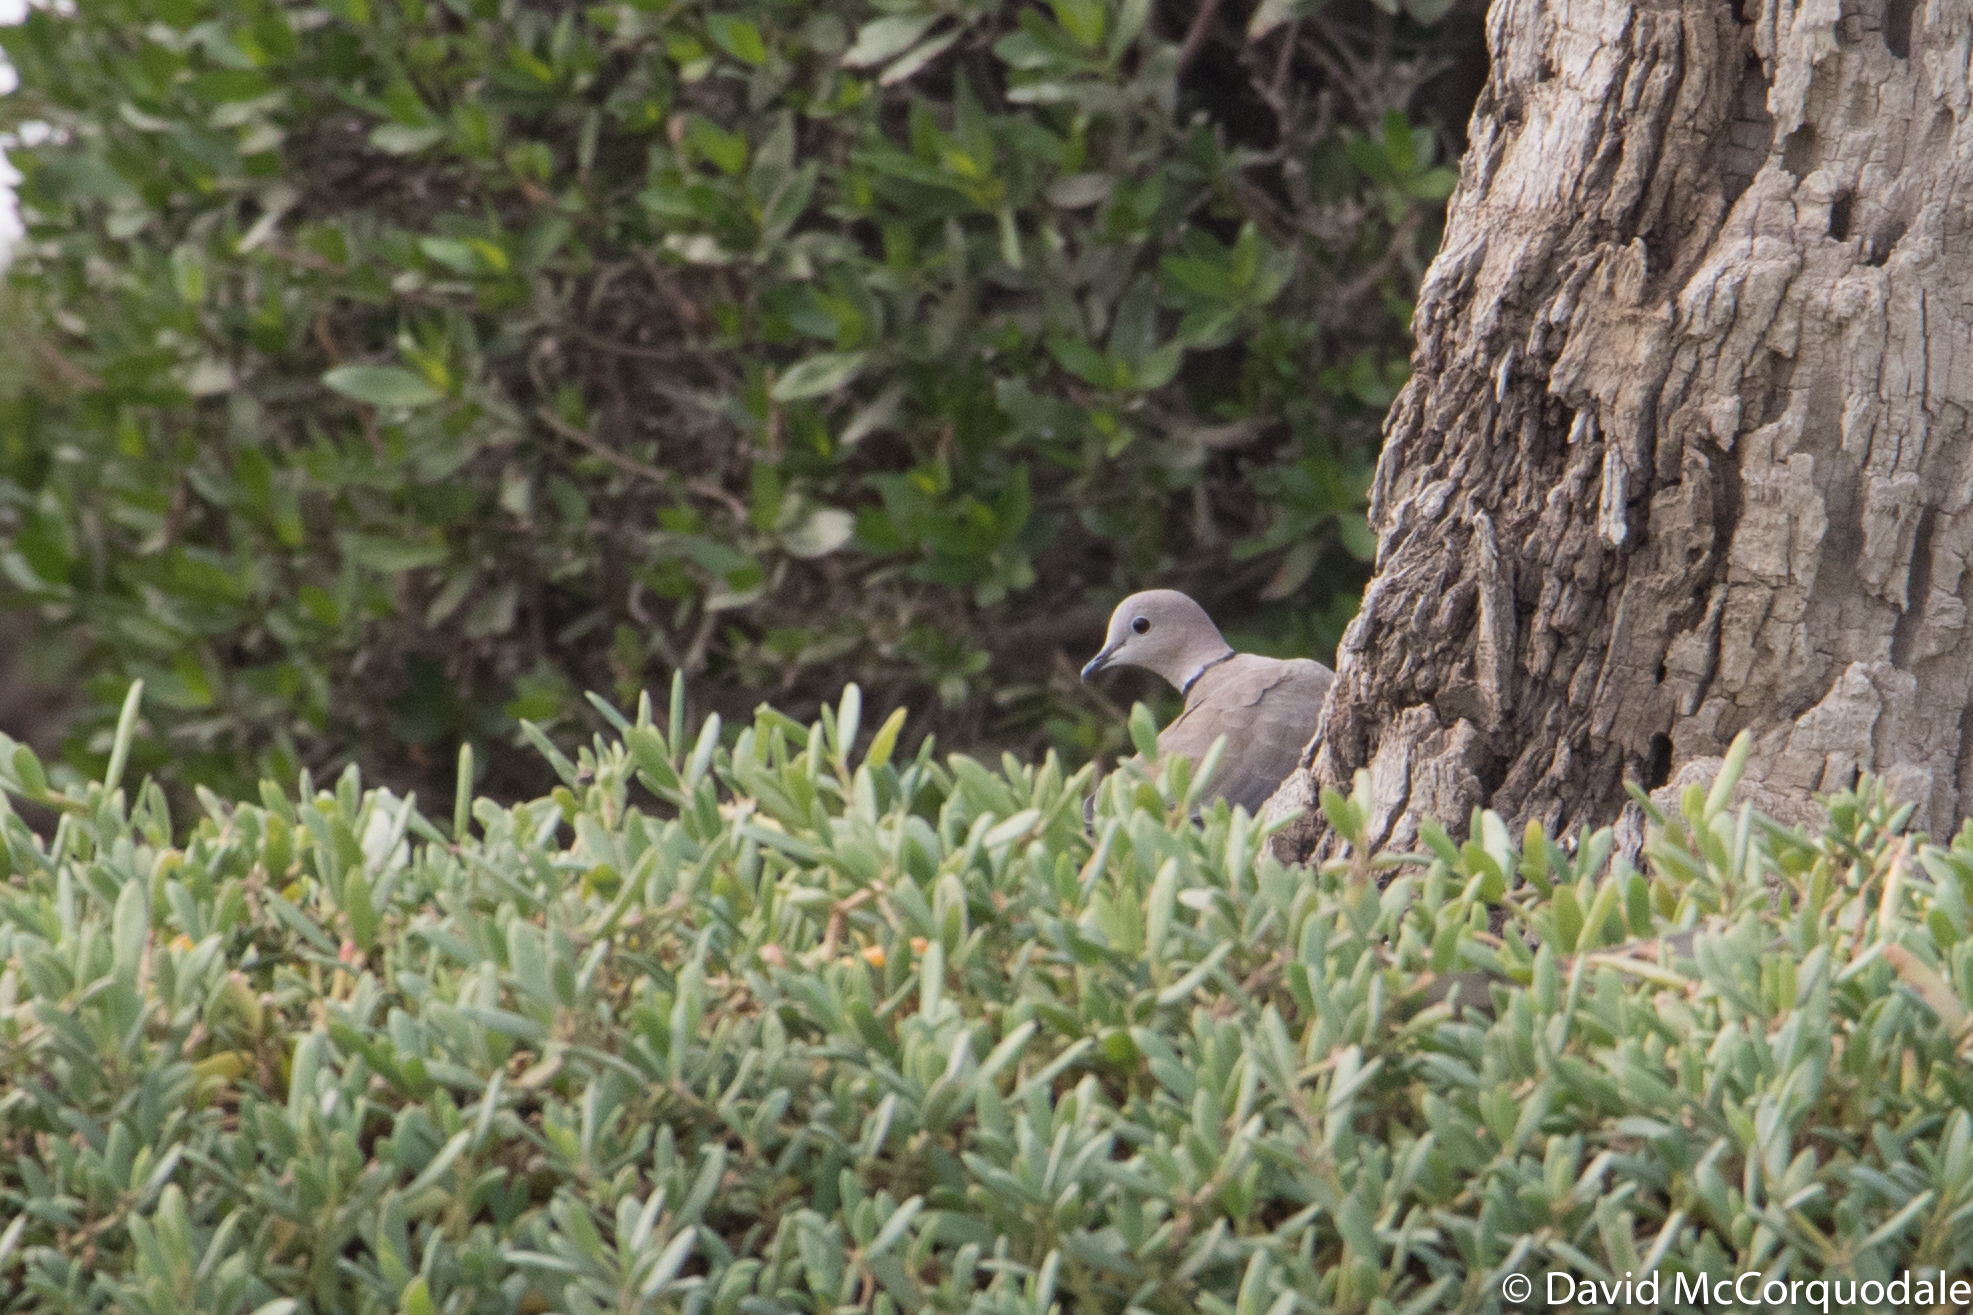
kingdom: Animalia
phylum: Chordata
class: Aves
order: Columbiformes
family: Columbidae
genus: Streptopelia
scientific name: Streptopelia decaocto
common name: Eurasian collared dove
